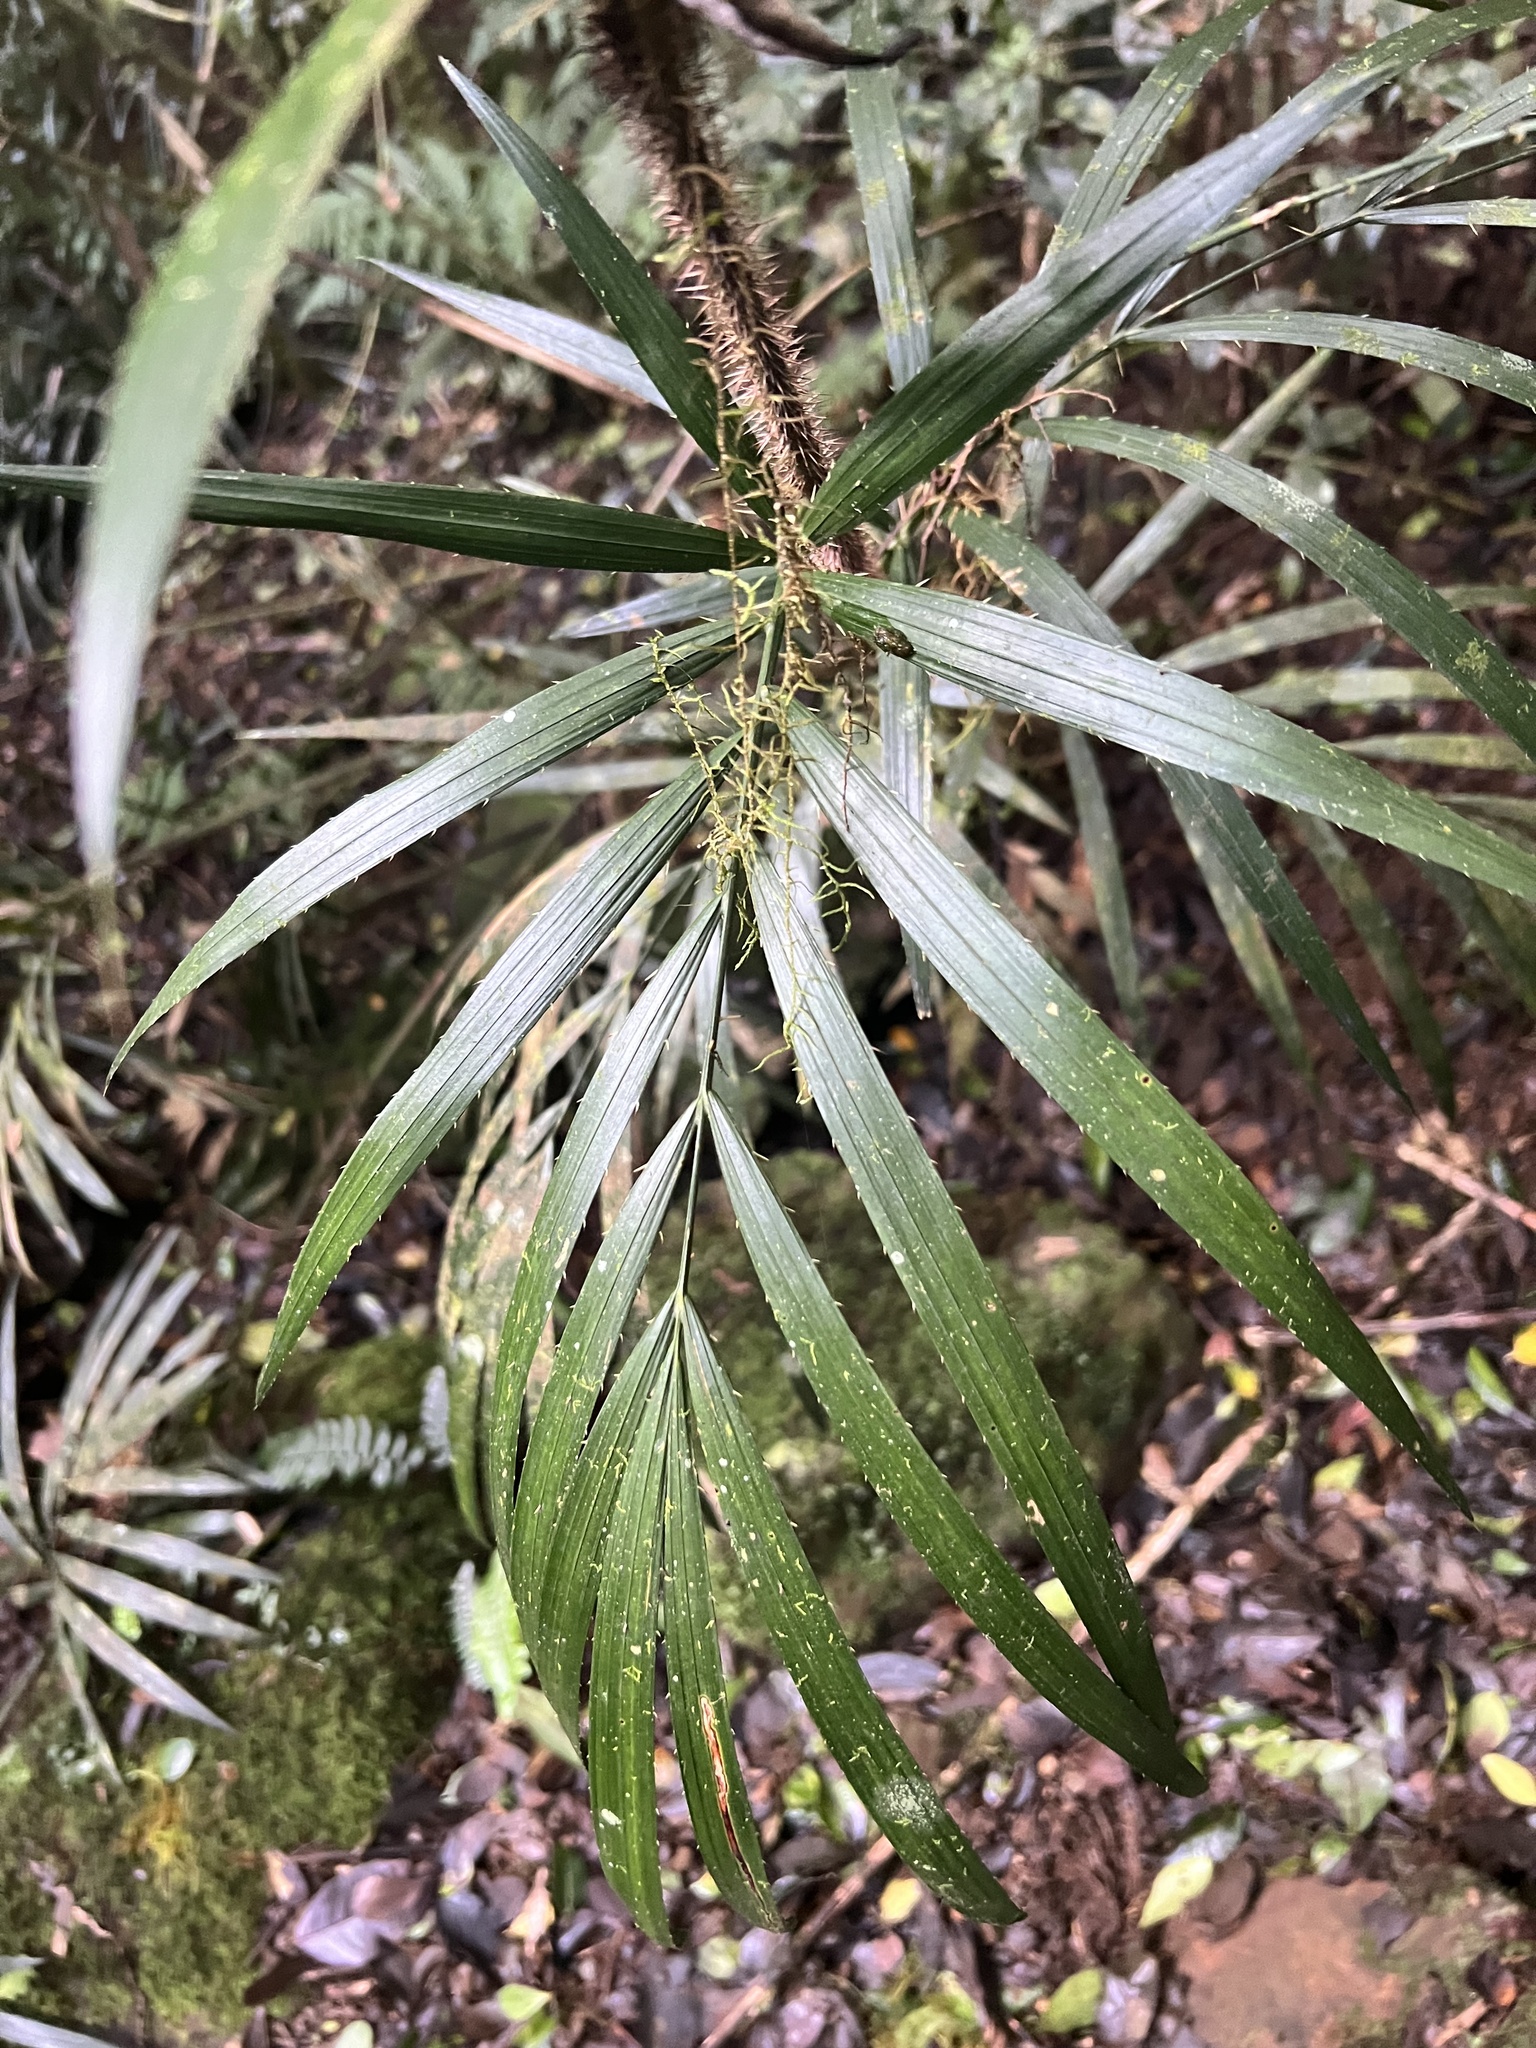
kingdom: Plantae
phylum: Tracheophyta
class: Liliopsida
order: Arecales
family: Arecaceae
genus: Calamus
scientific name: Calamus muelleri
